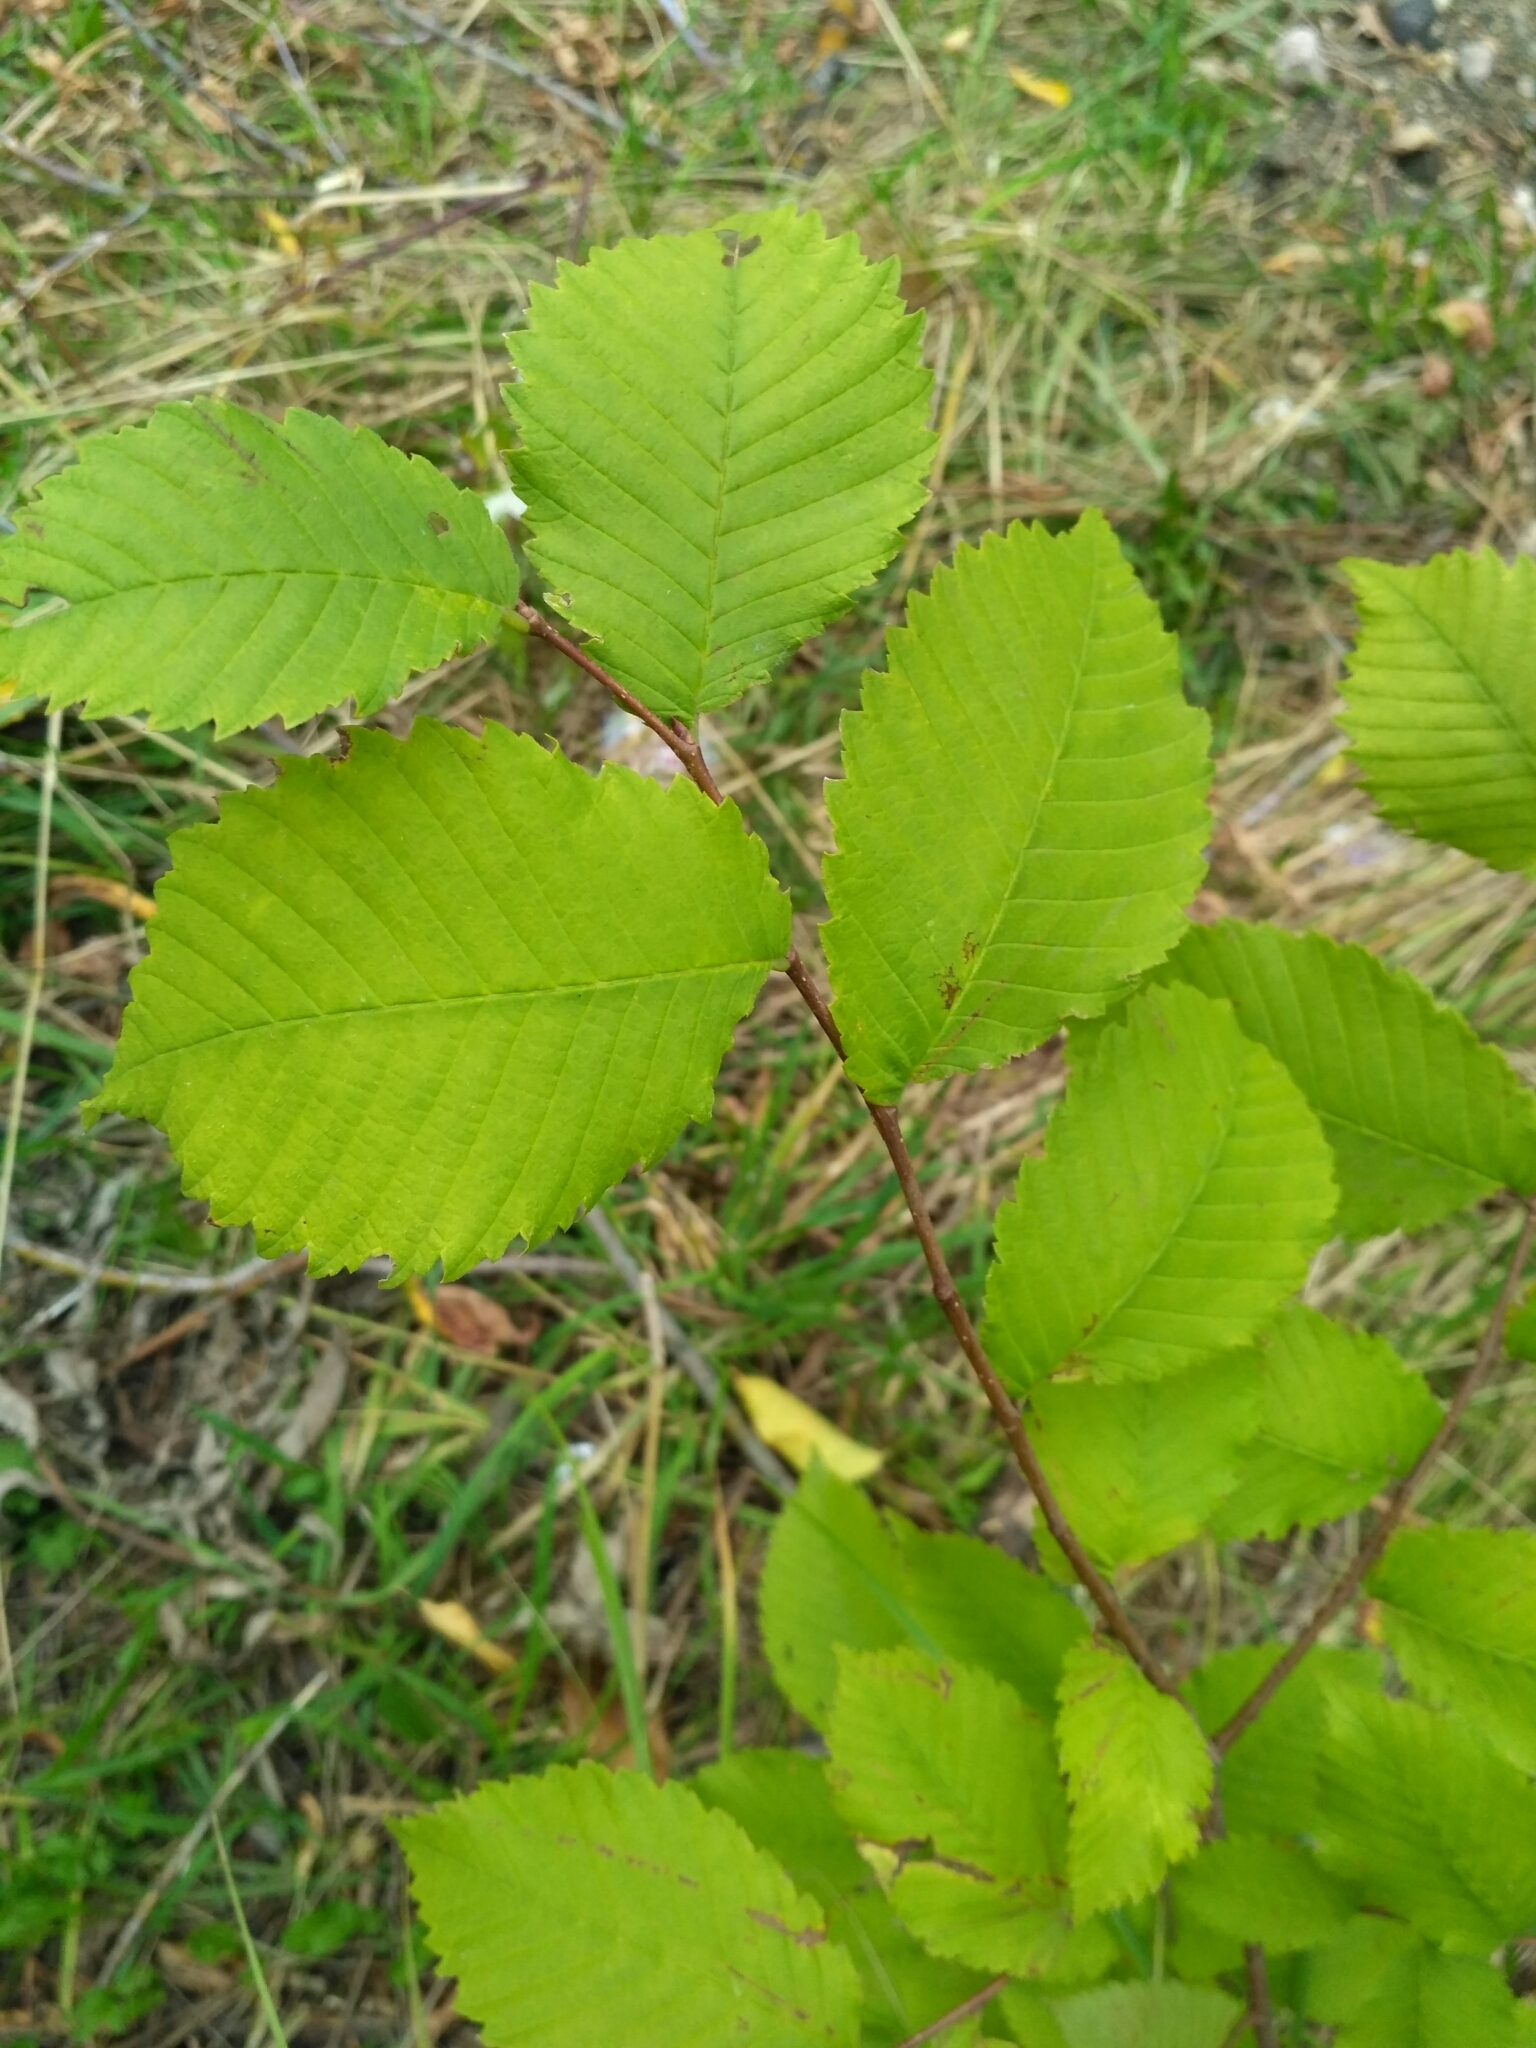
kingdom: Plantae
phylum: Tracheophyta
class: Magnoliopsida
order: Rosales
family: Ulmaceae
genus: Ulmus
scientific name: Ulmus laevis
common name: European white-elm
